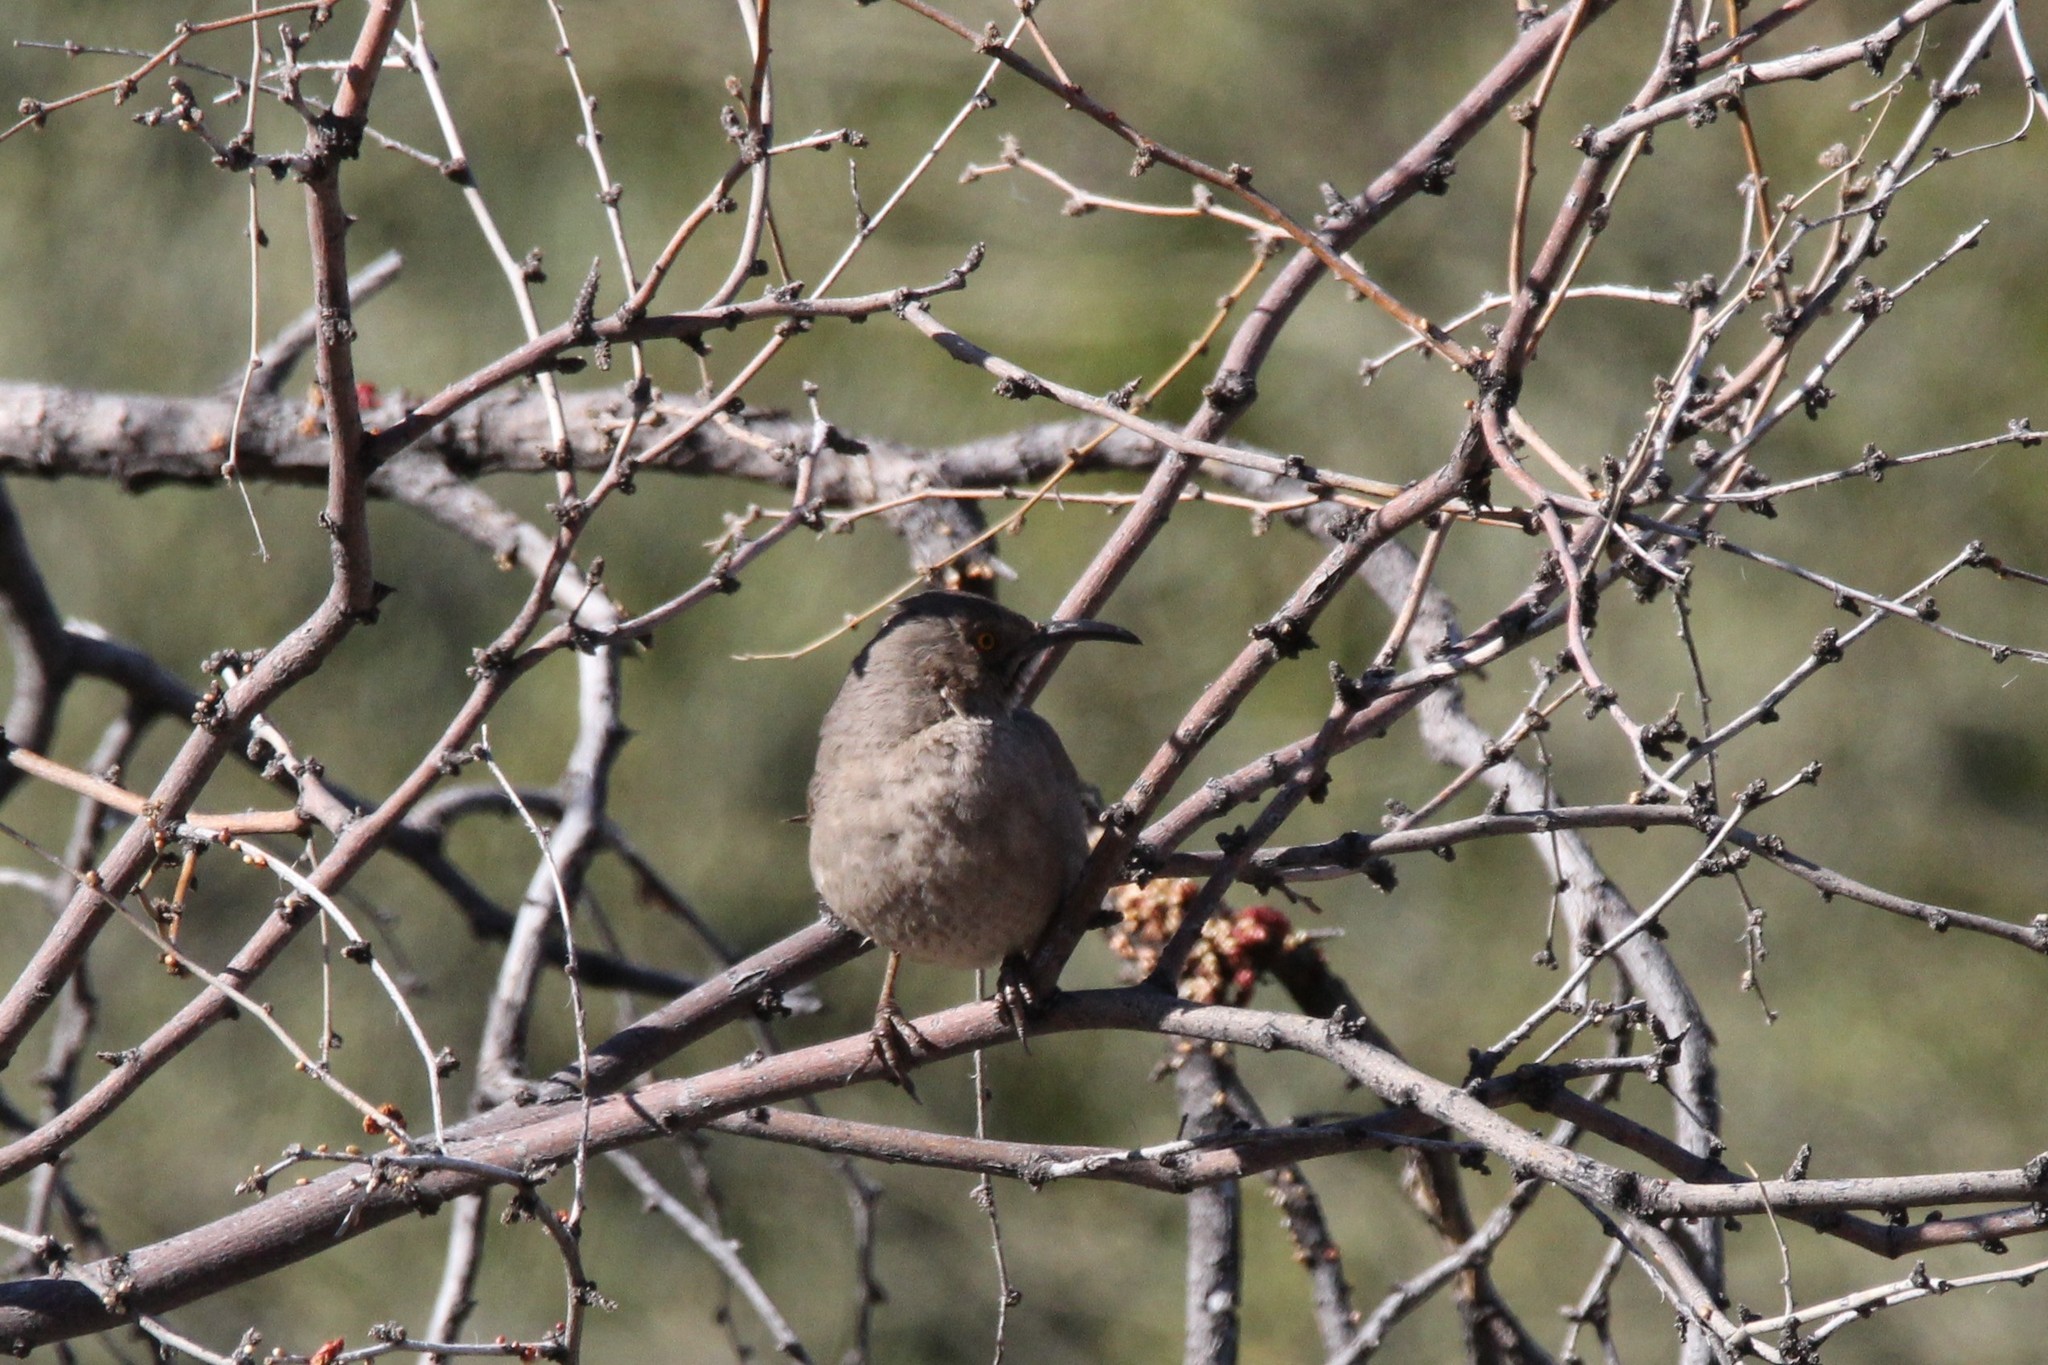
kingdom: Animalia
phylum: Chordata
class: Aves
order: Passeriformes
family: Mimidae
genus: Toxostoma
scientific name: Toxostoma curvirostre
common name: Curve-billed thrasher
